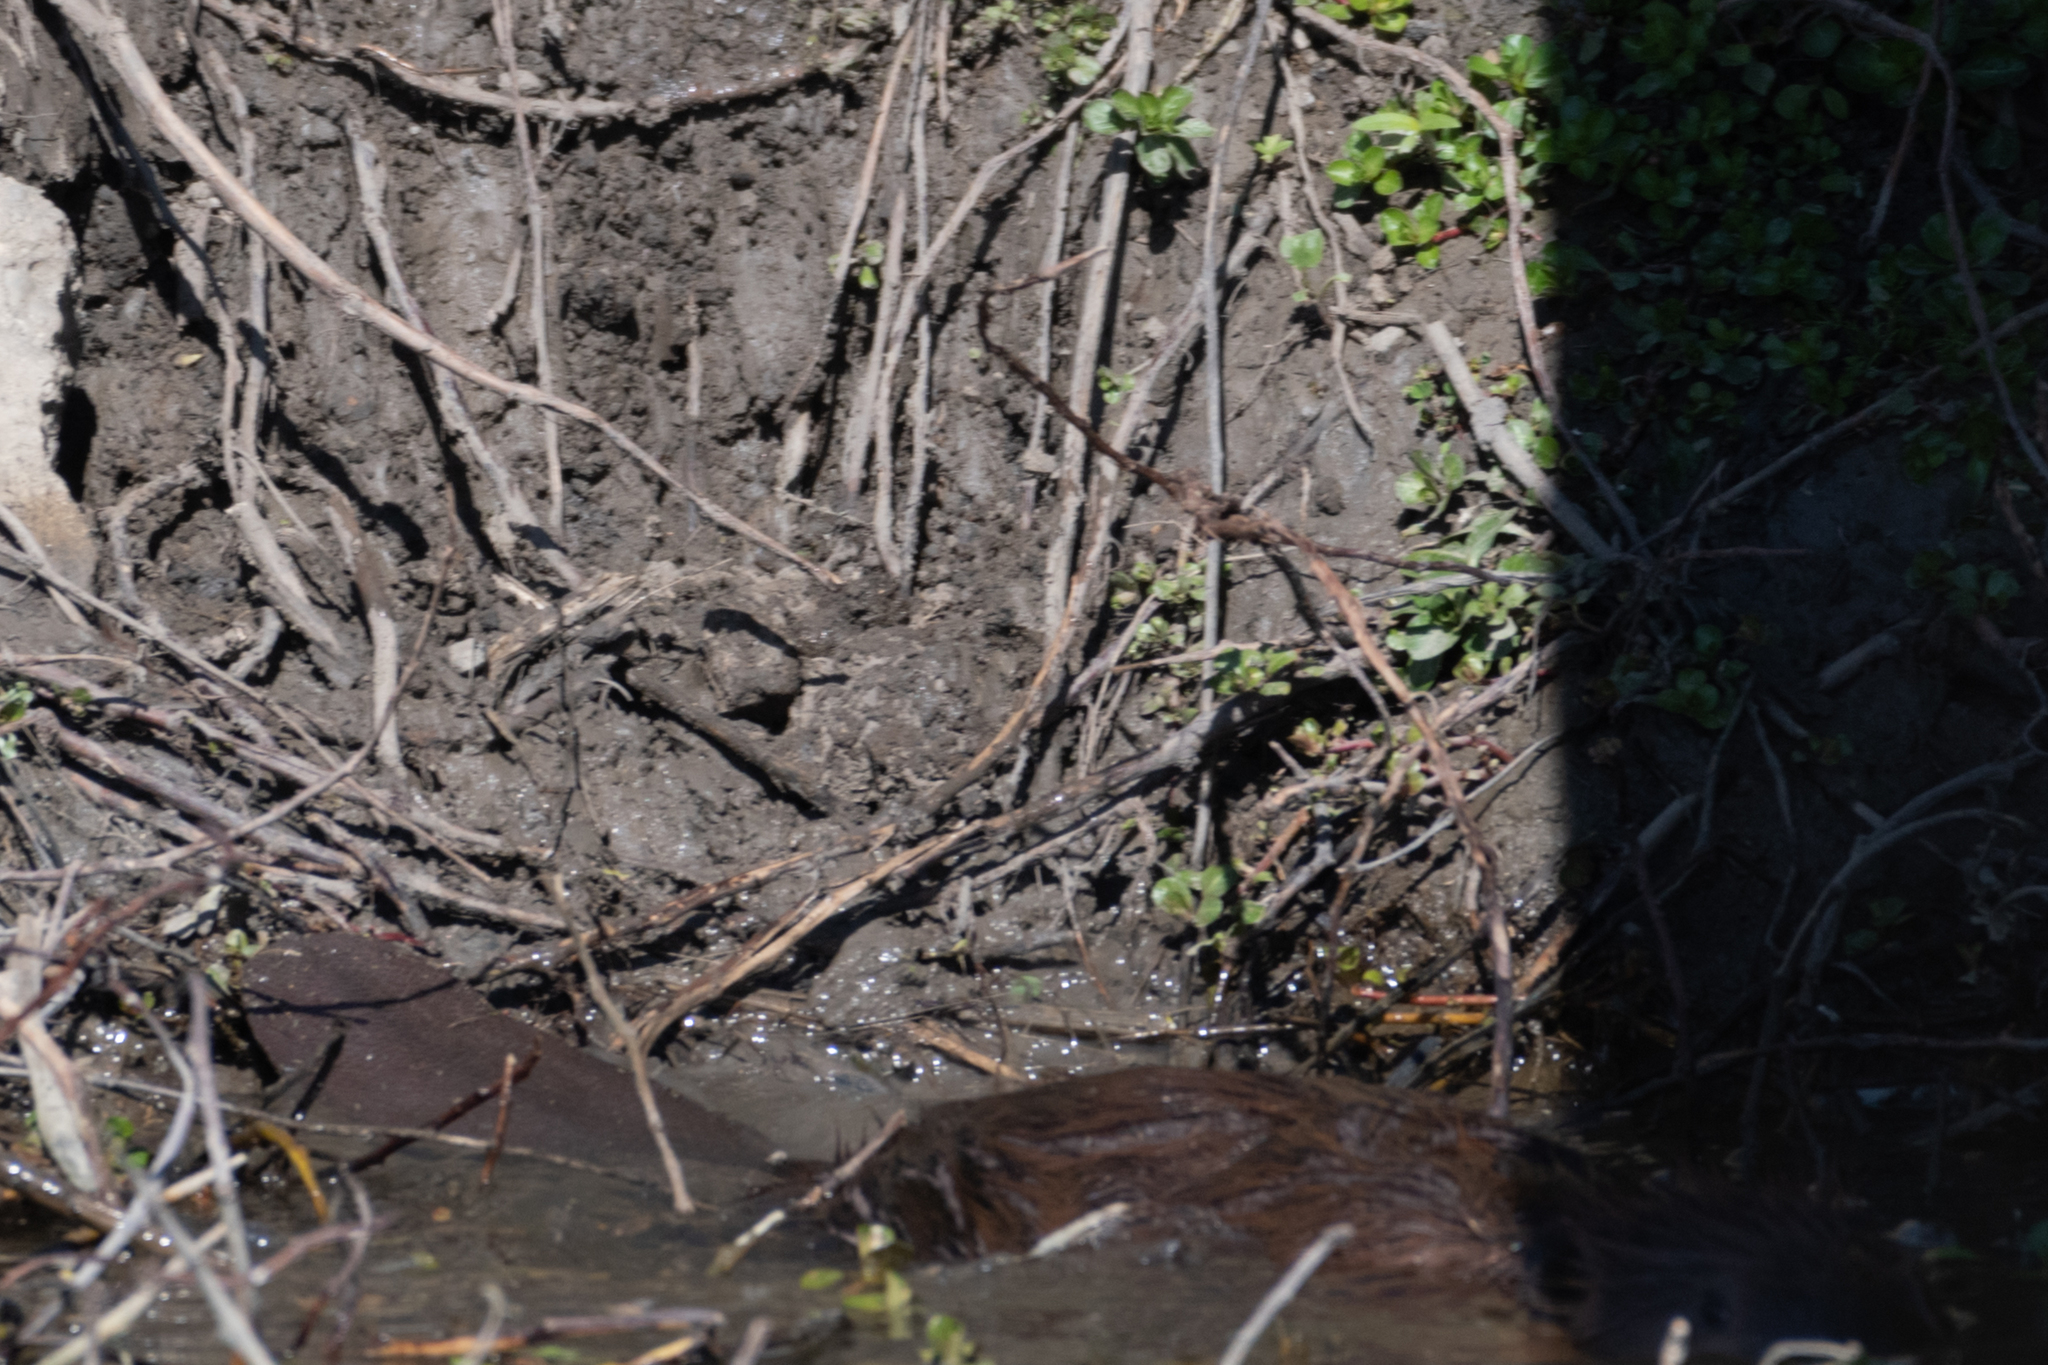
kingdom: Animalia
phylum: Chordata
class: Mammalia
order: Rodentia
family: Castoridae
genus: Castor
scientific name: Castor canadensis
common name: American beaver
